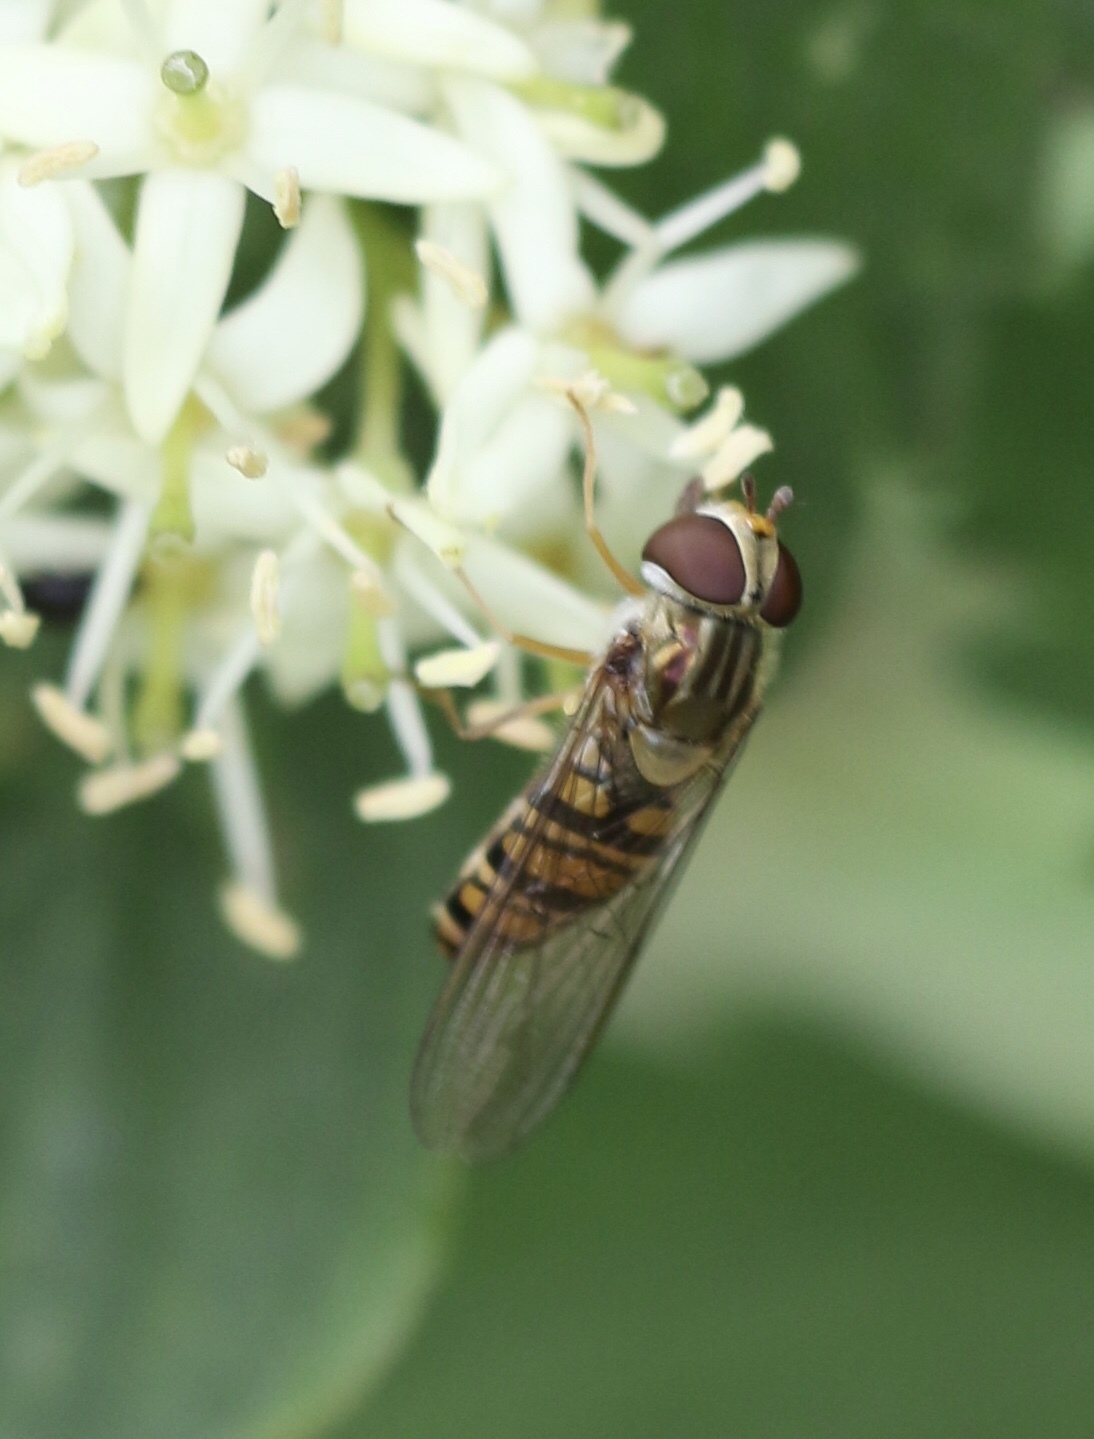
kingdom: Animalia
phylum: Arthropoda
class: Insecta
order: Diptera
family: Syrphidae
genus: Episyrphus
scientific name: Episyrphus balteatus
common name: Marmalade hoverfly
